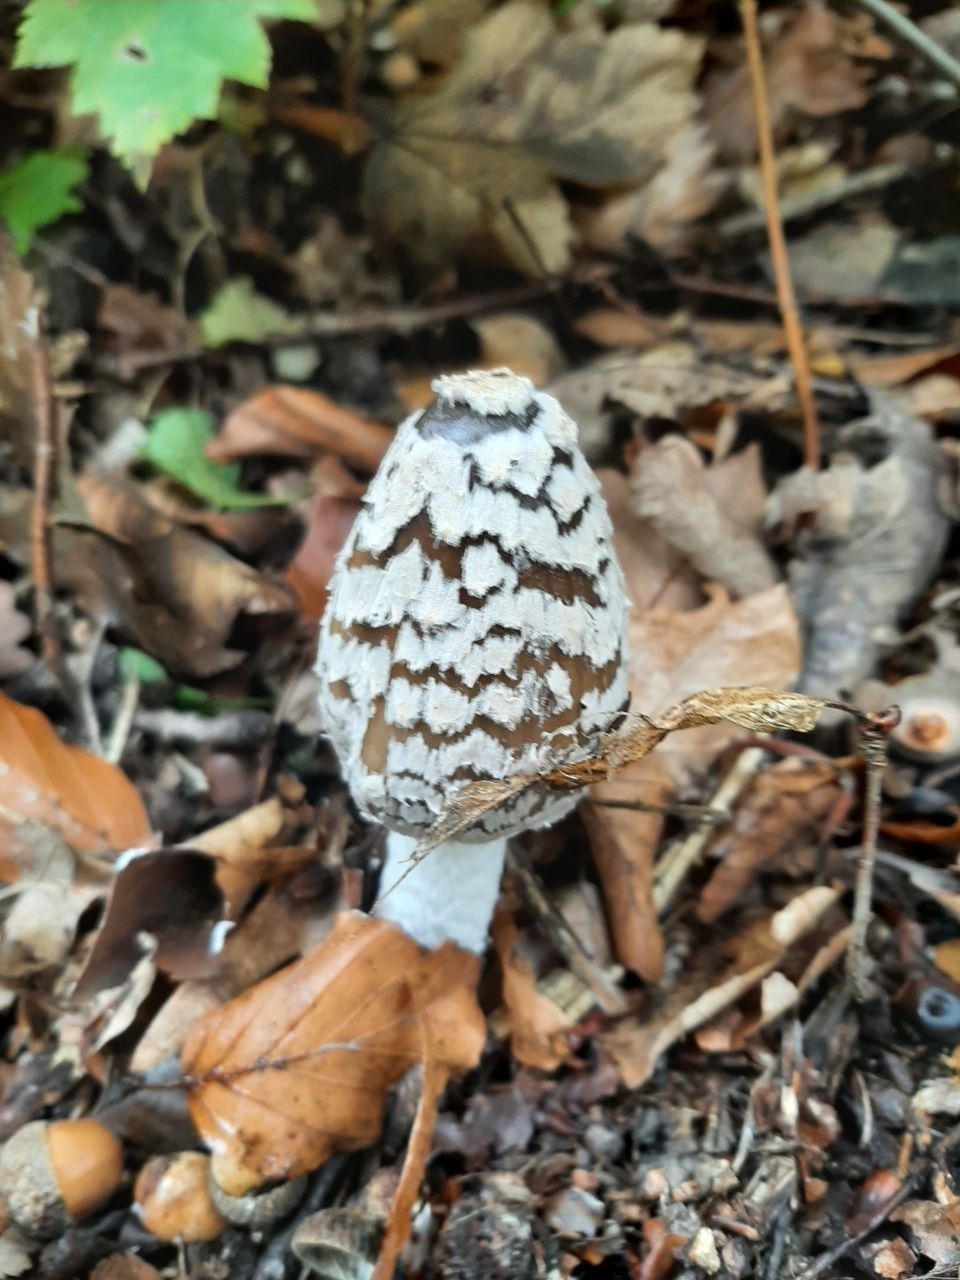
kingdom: Fungi
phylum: Basidiomycota
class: Agaricomycetes
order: Agaricales
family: Psathyrellaceae
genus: Coprinopsis
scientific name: Coprinopsis picacea
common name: Magpie inkcap
